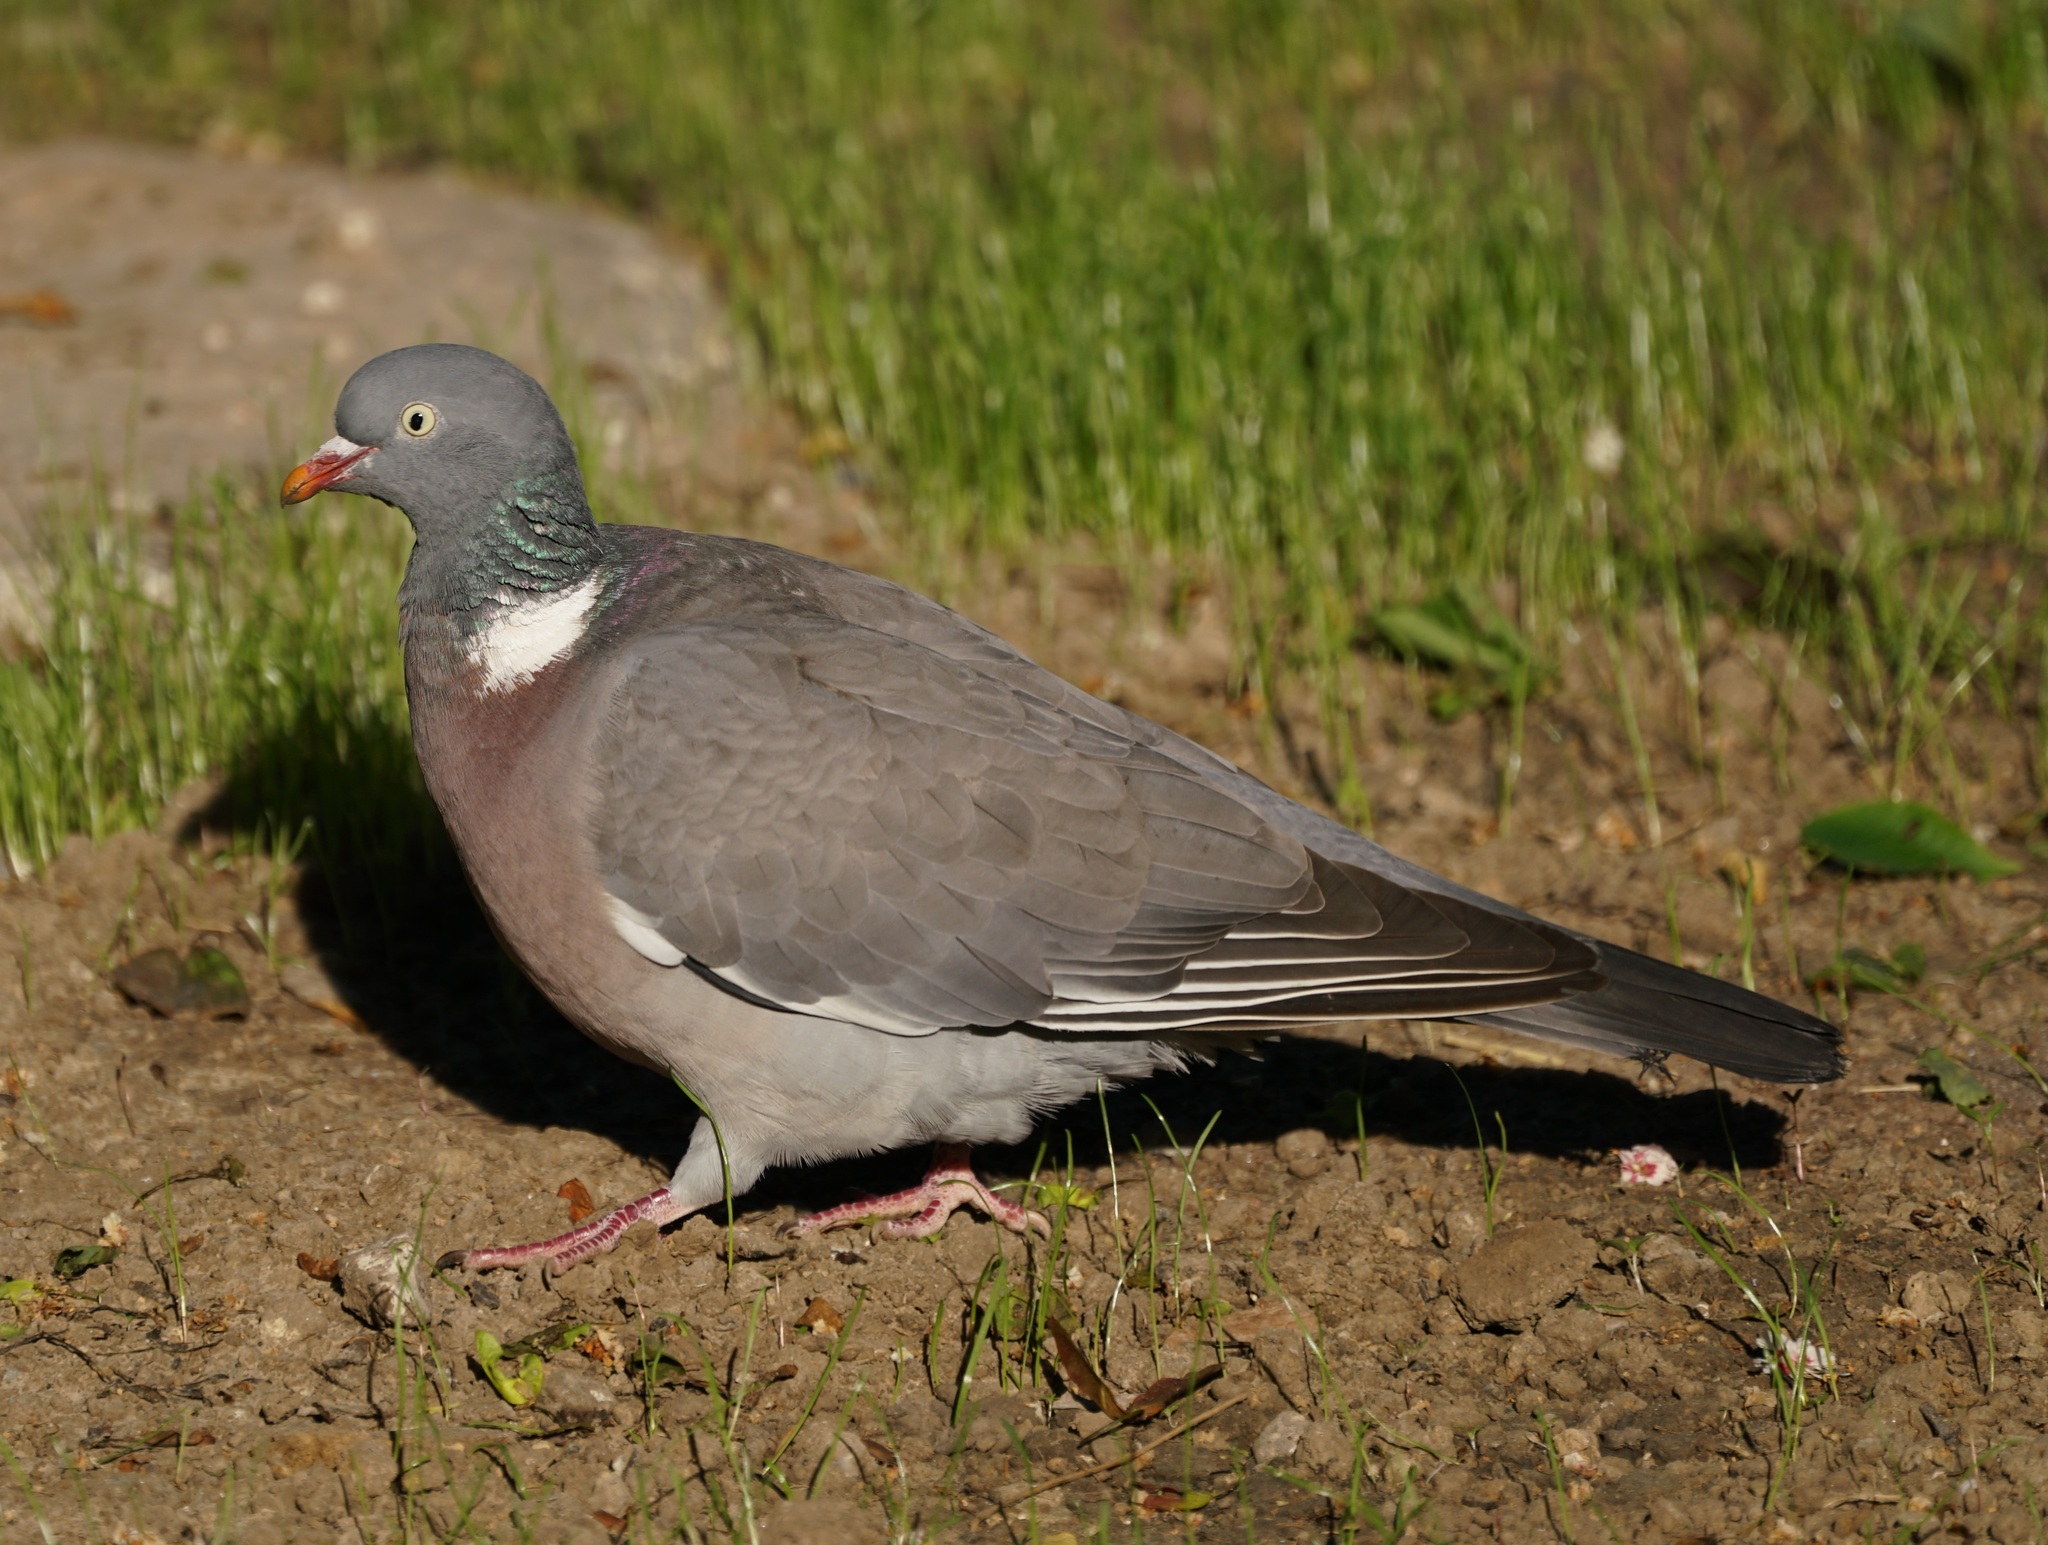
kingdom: Animalia
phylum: Chordata
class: Aves
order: Columbiformes
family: Columbidae
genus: Columba
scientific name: Columba palumbus
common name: Common wood pigeon
